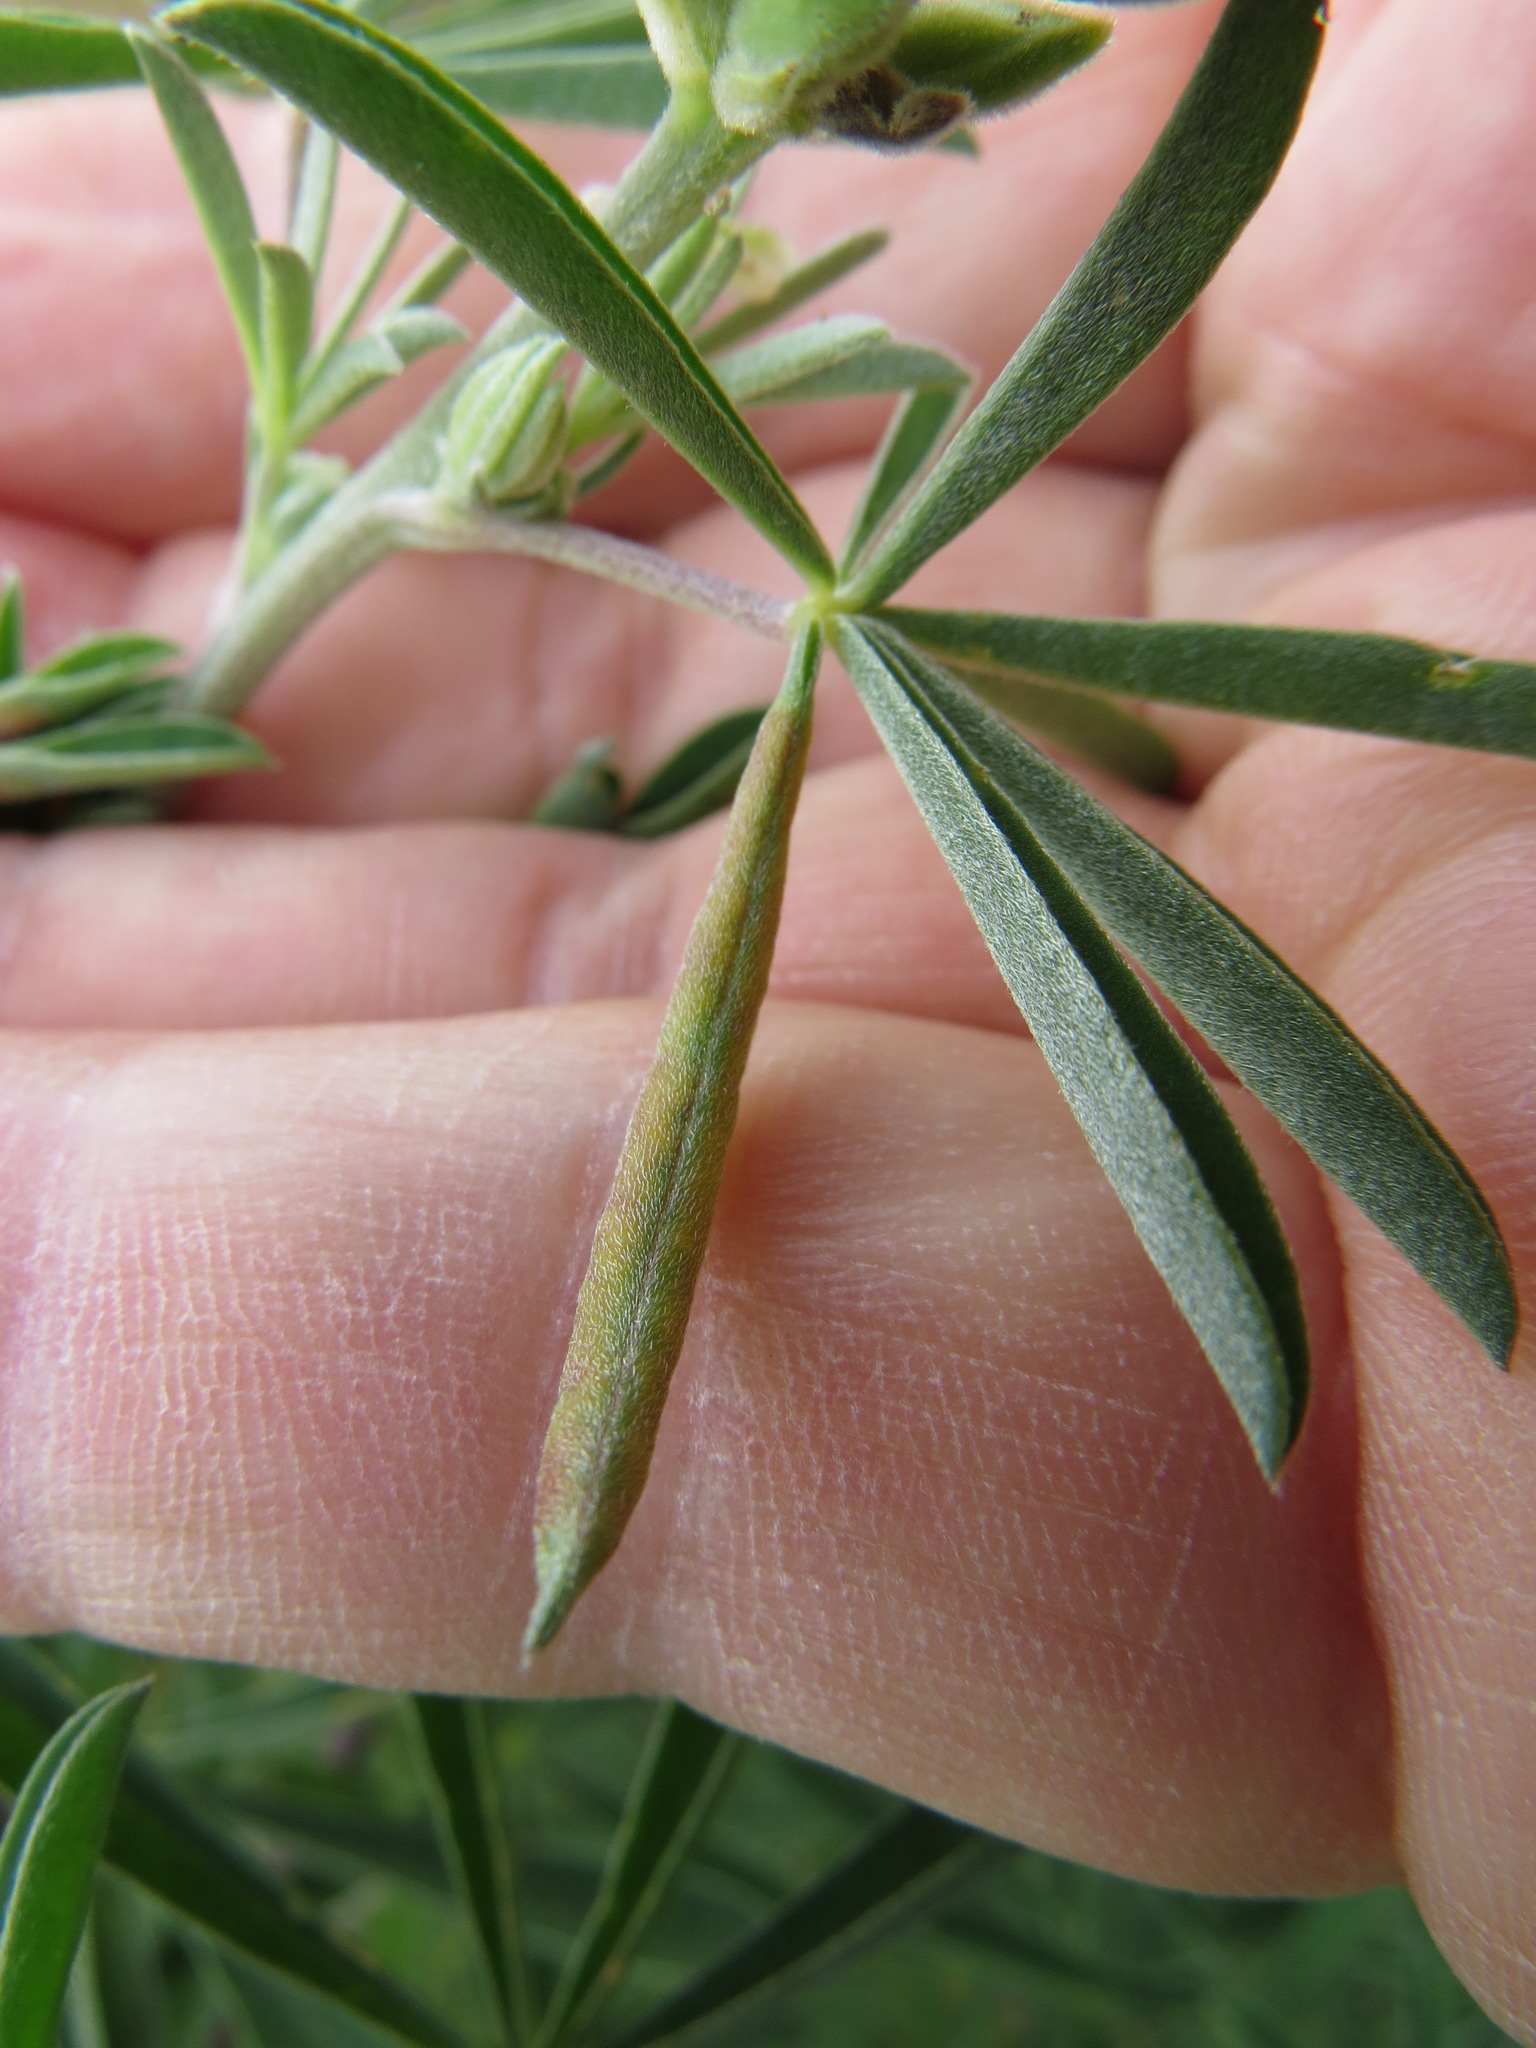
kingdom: Animalia
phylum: Arthropoda
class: Insecta
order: Diptera
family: Cecidomyiidae
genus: Dasineura
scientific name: Dasineura lupinorum
